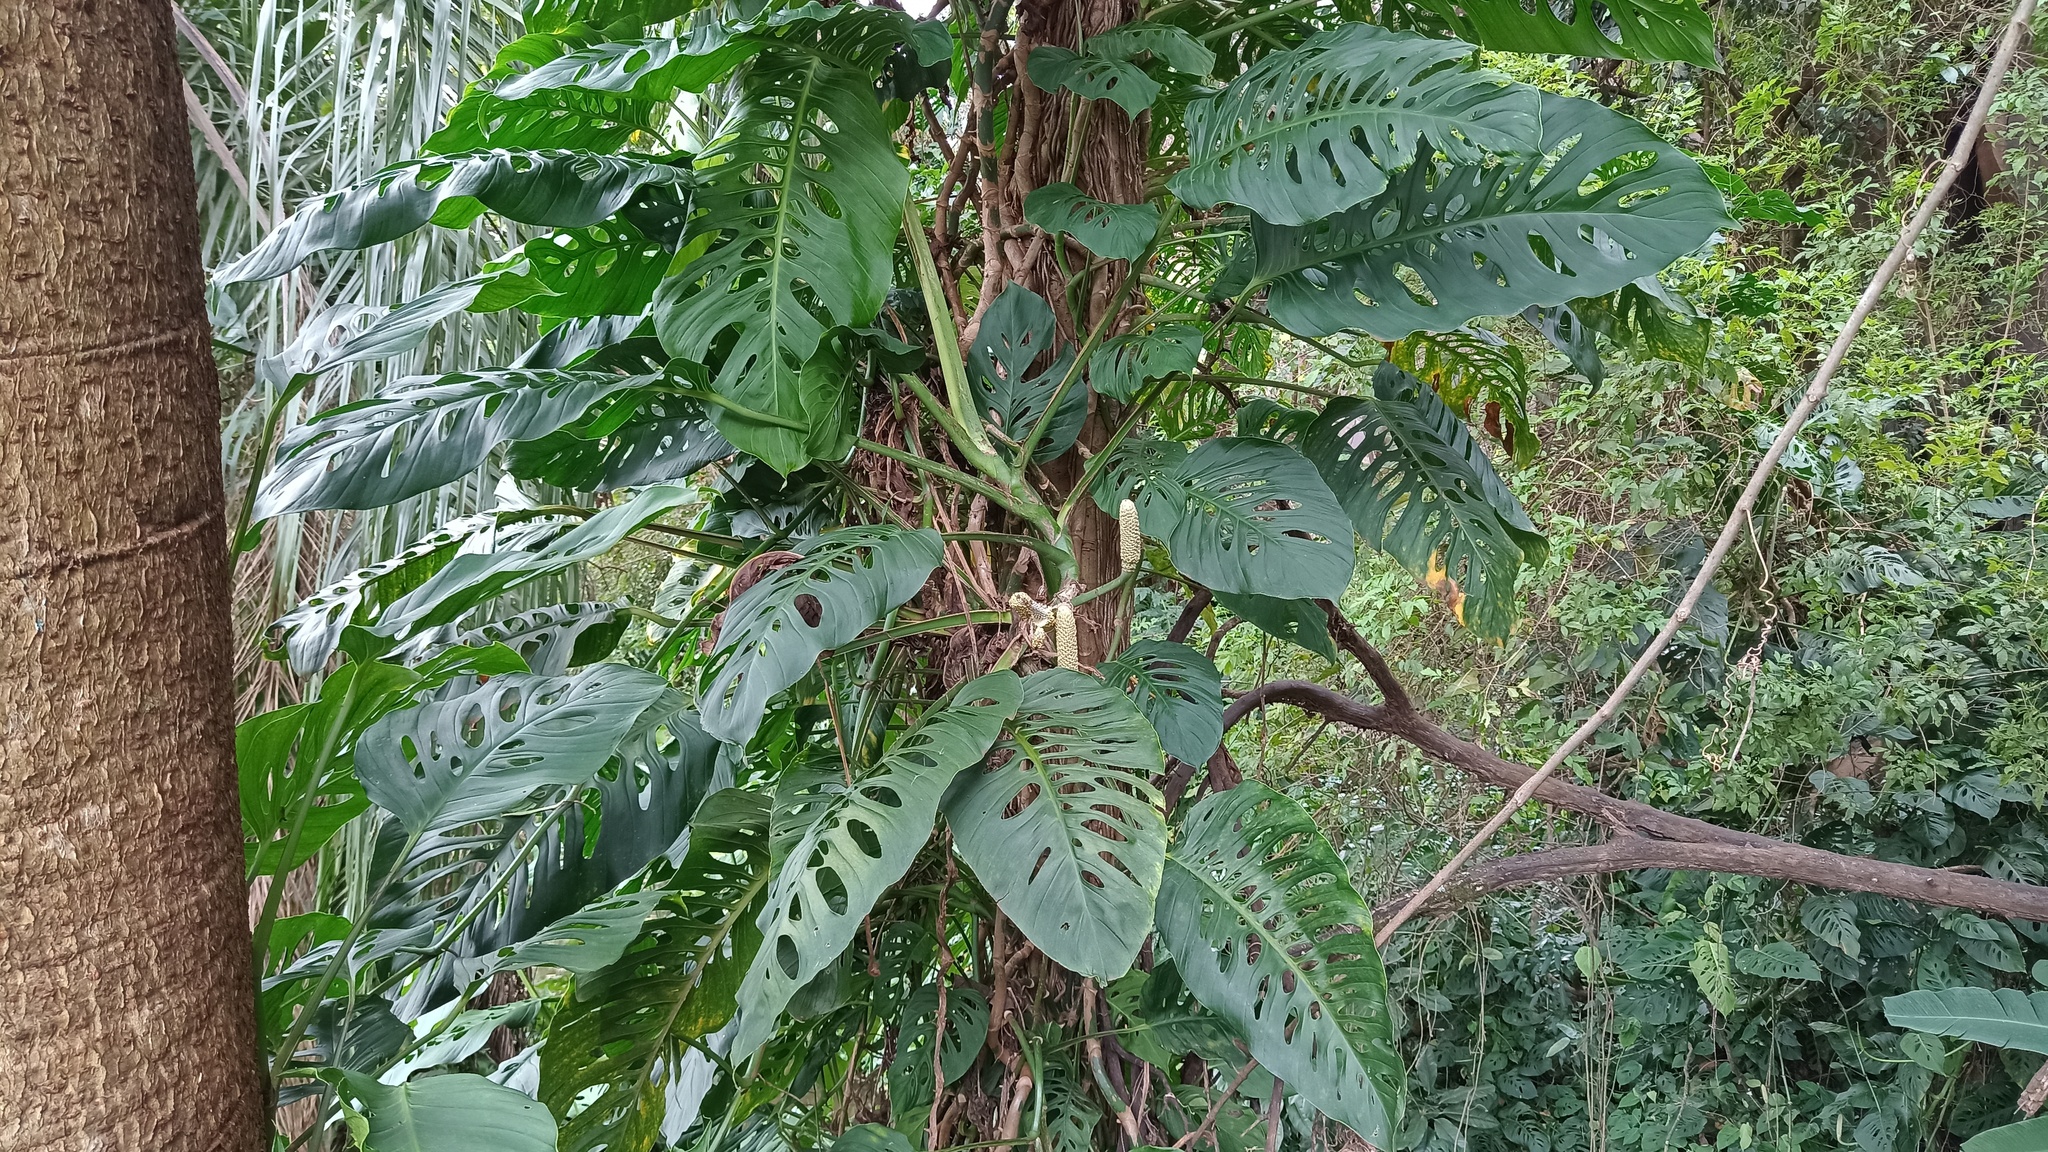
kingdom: Plantae
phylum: Tracheophyta
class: Liliopsida
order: Alismatales
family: Araceae
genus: Monstera
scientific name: Monstera adansonii
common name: Tarovine
